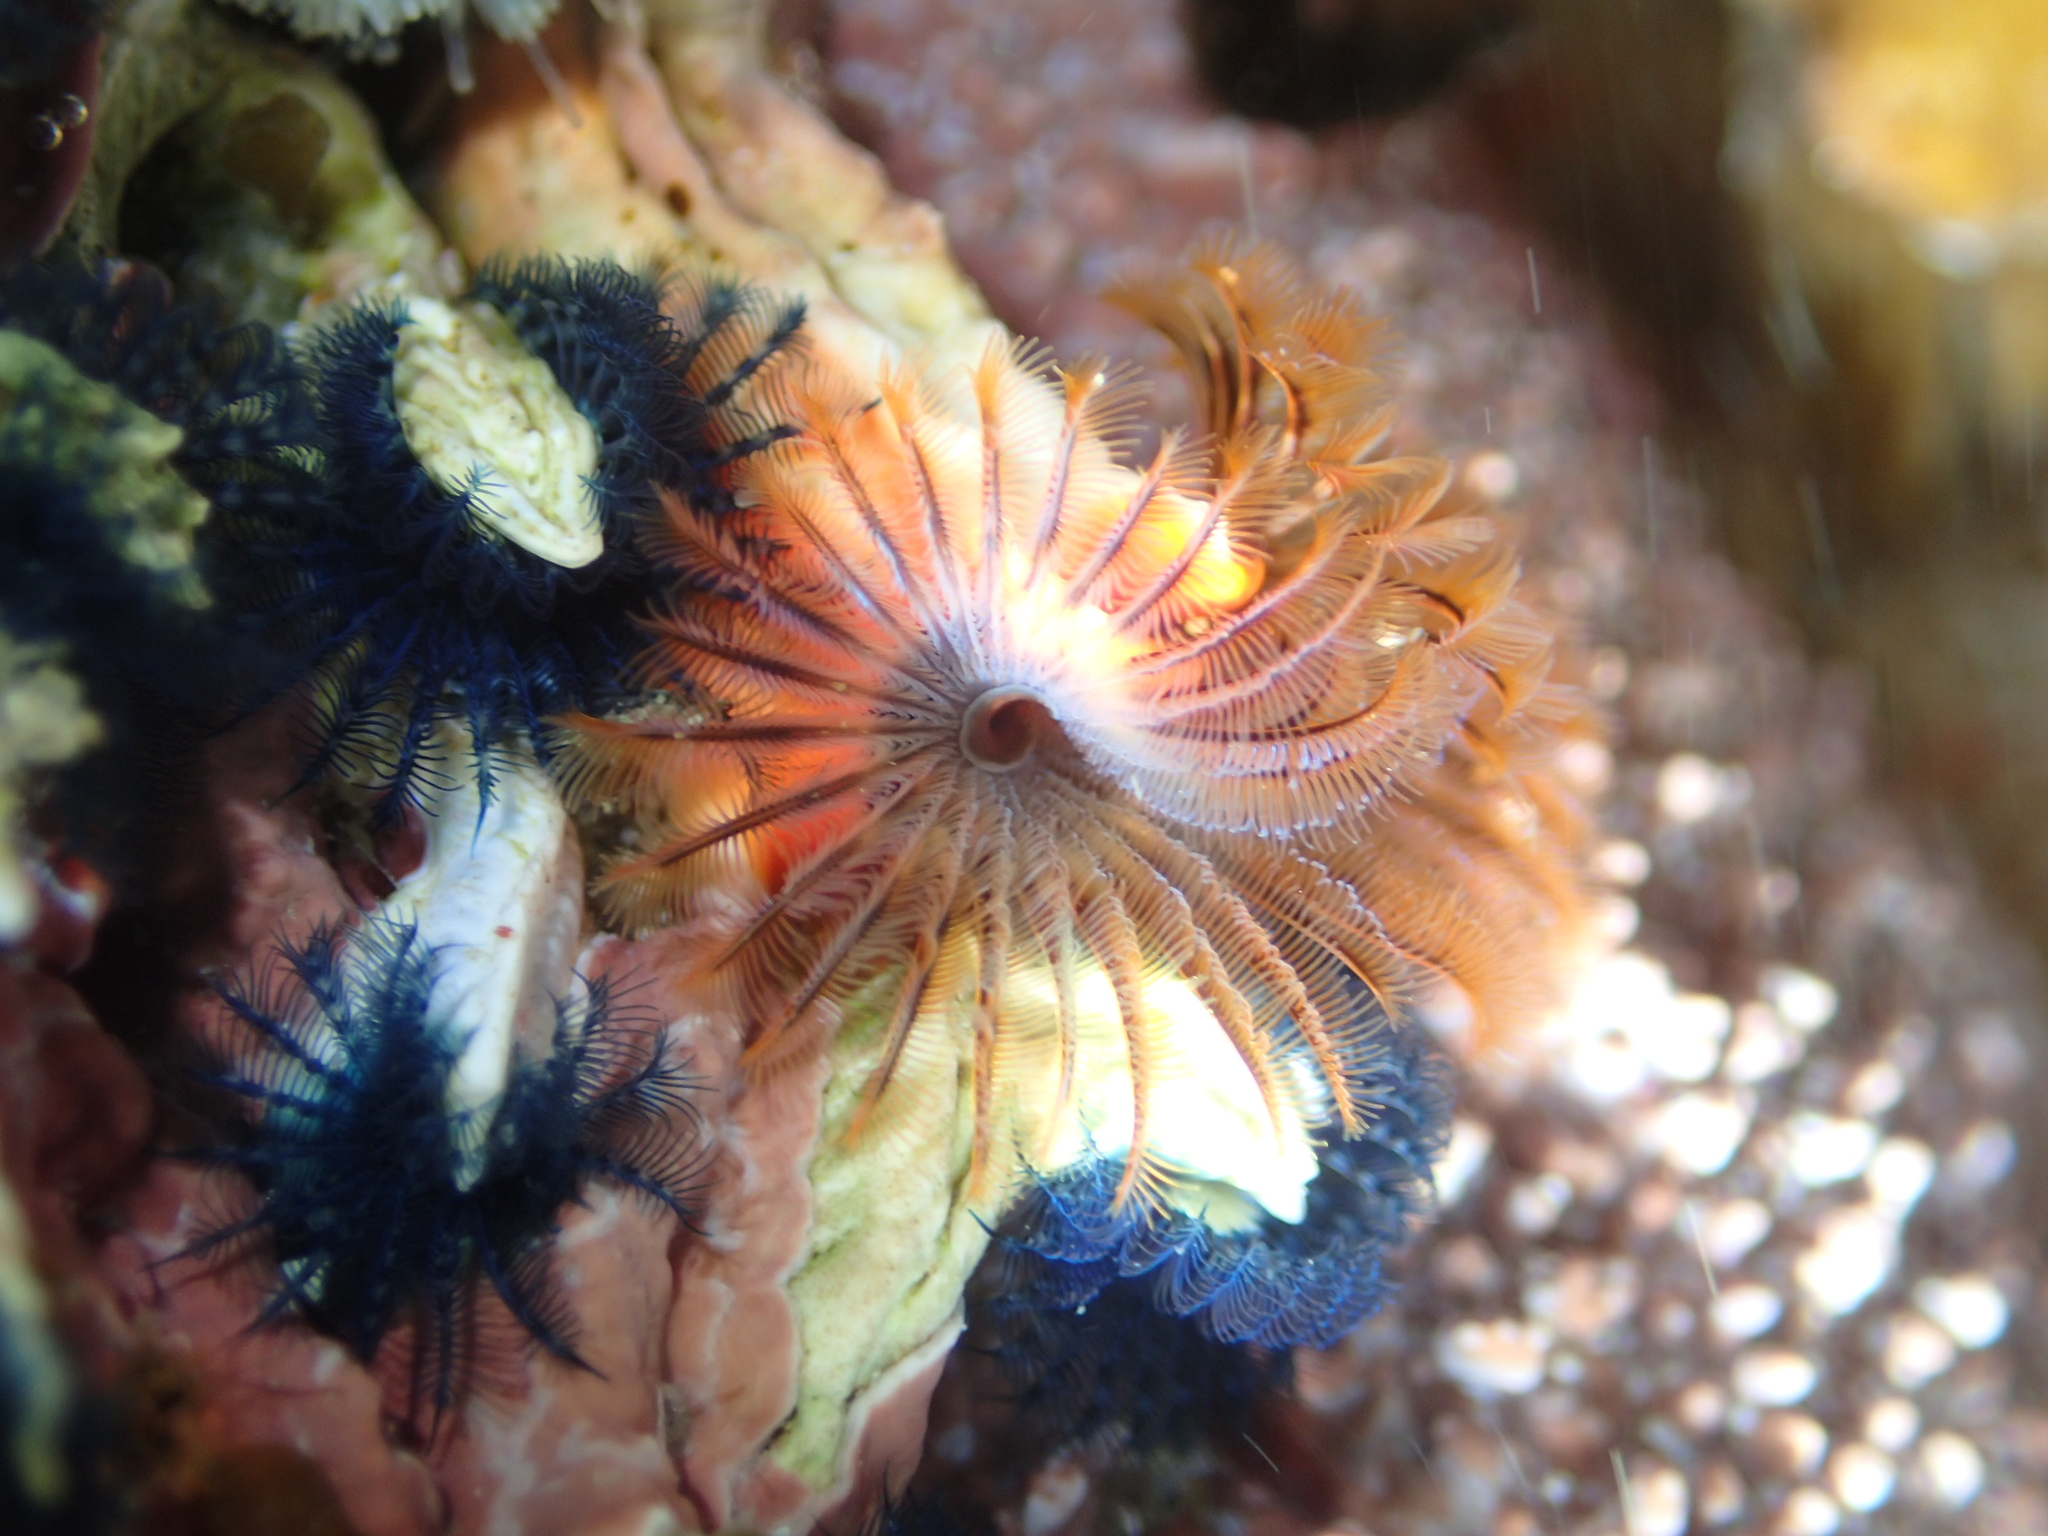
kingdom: Animalia
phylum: Annelida
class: Polychaeta
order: Sabellida
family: Serpulidae
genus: Galeolaria
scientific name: Galeolaria hystrix
